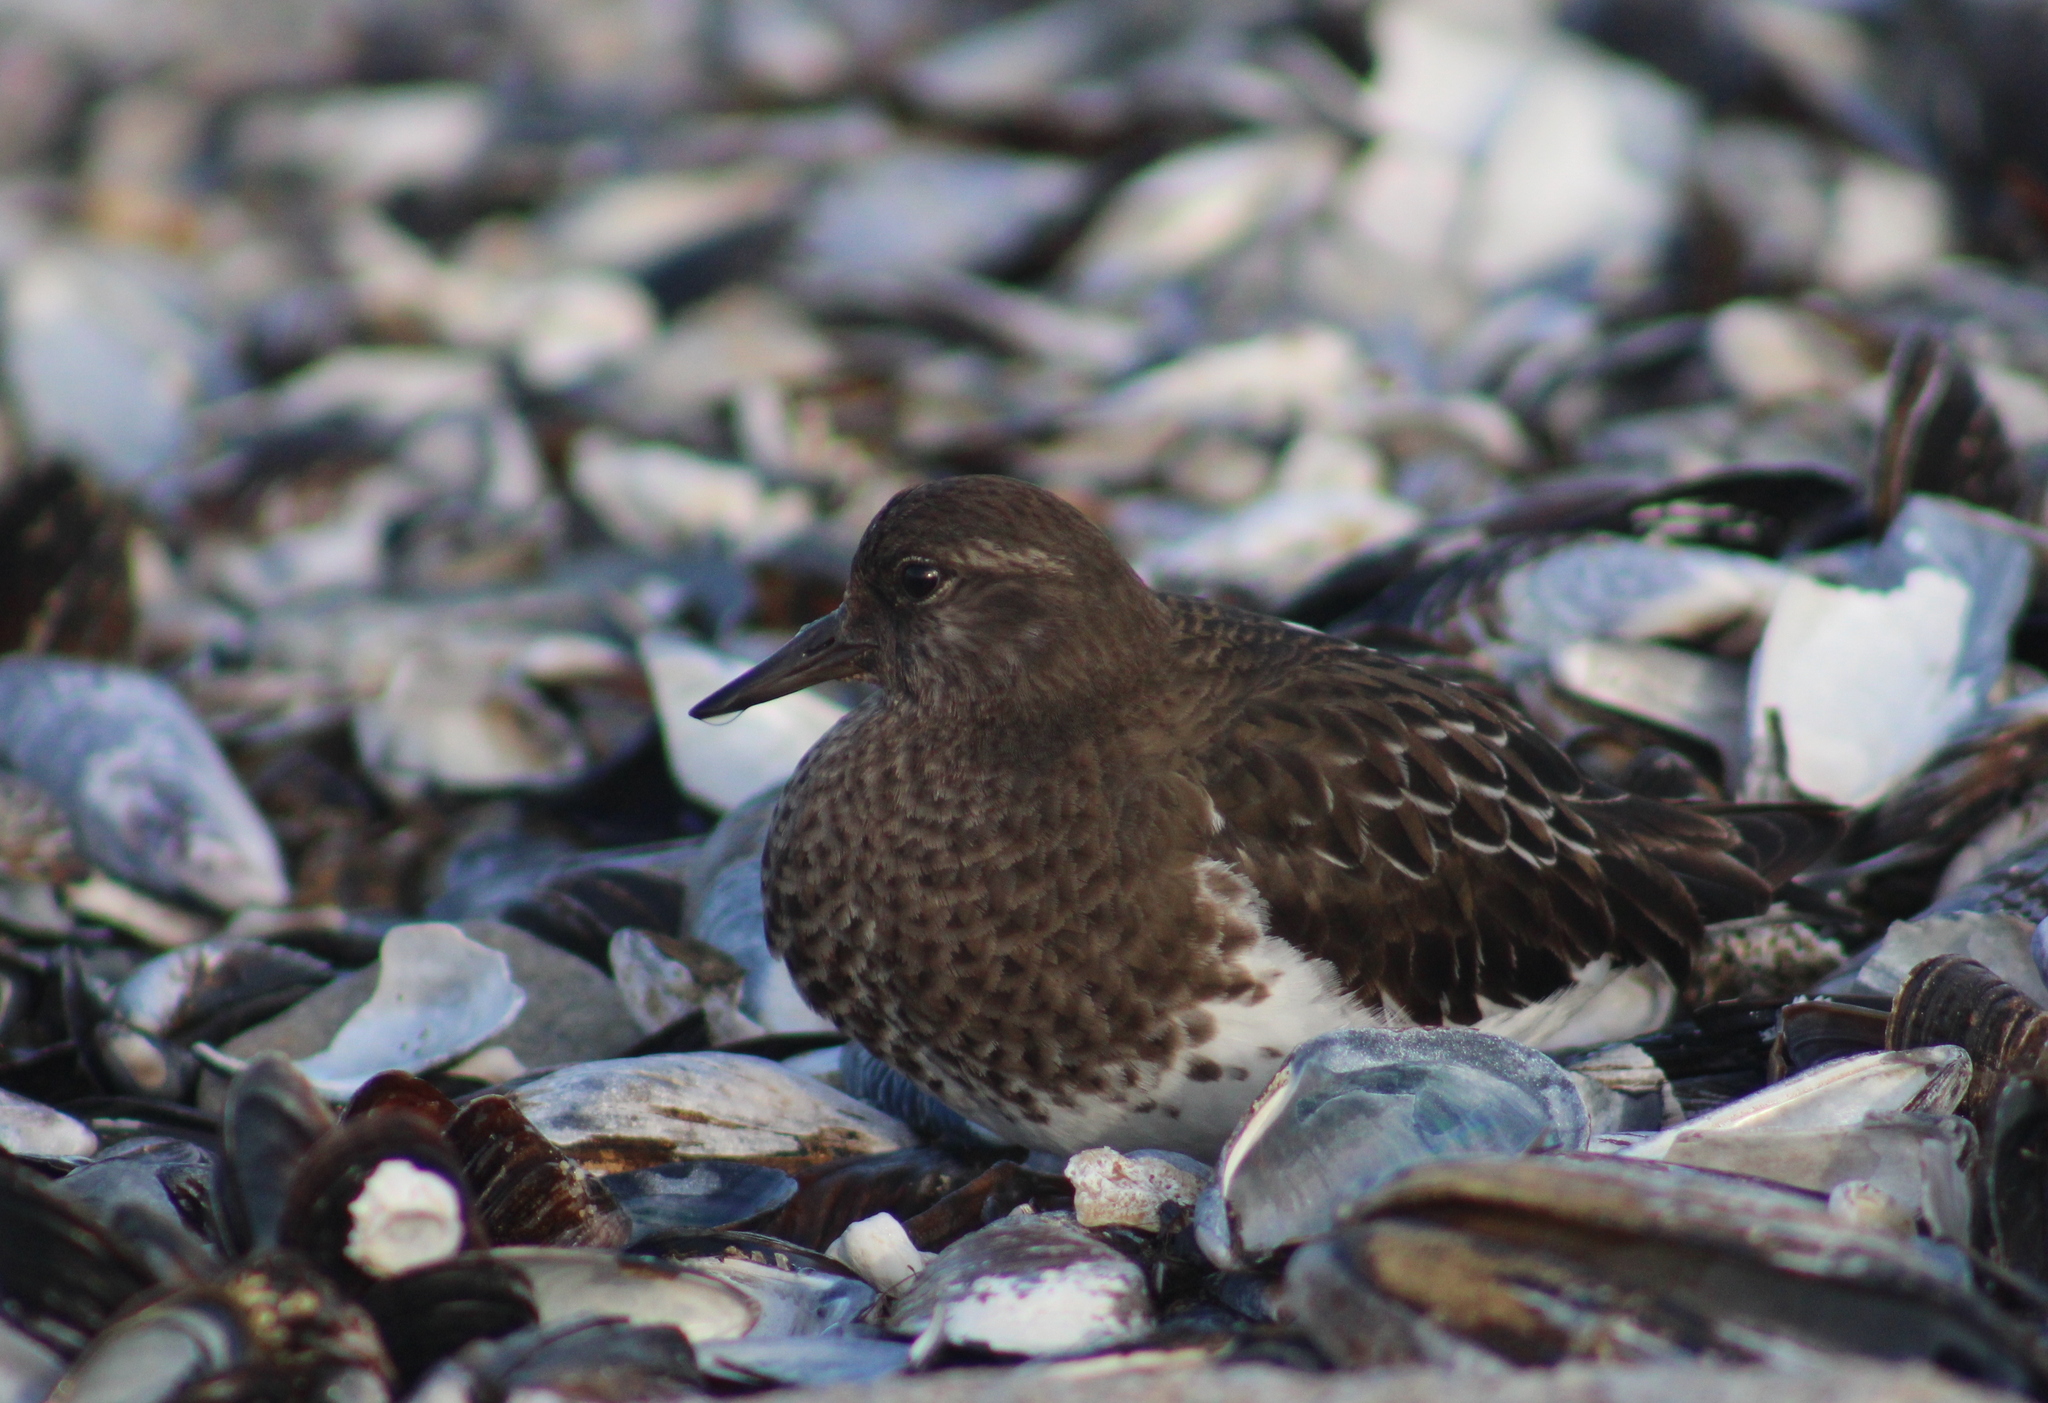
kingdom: Animalia
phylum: Chordata
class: Aves
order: Charadriiformes
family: Scolopacidae
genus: Arenaria
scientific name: Arenaria melanocephala
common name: Black turnstone
